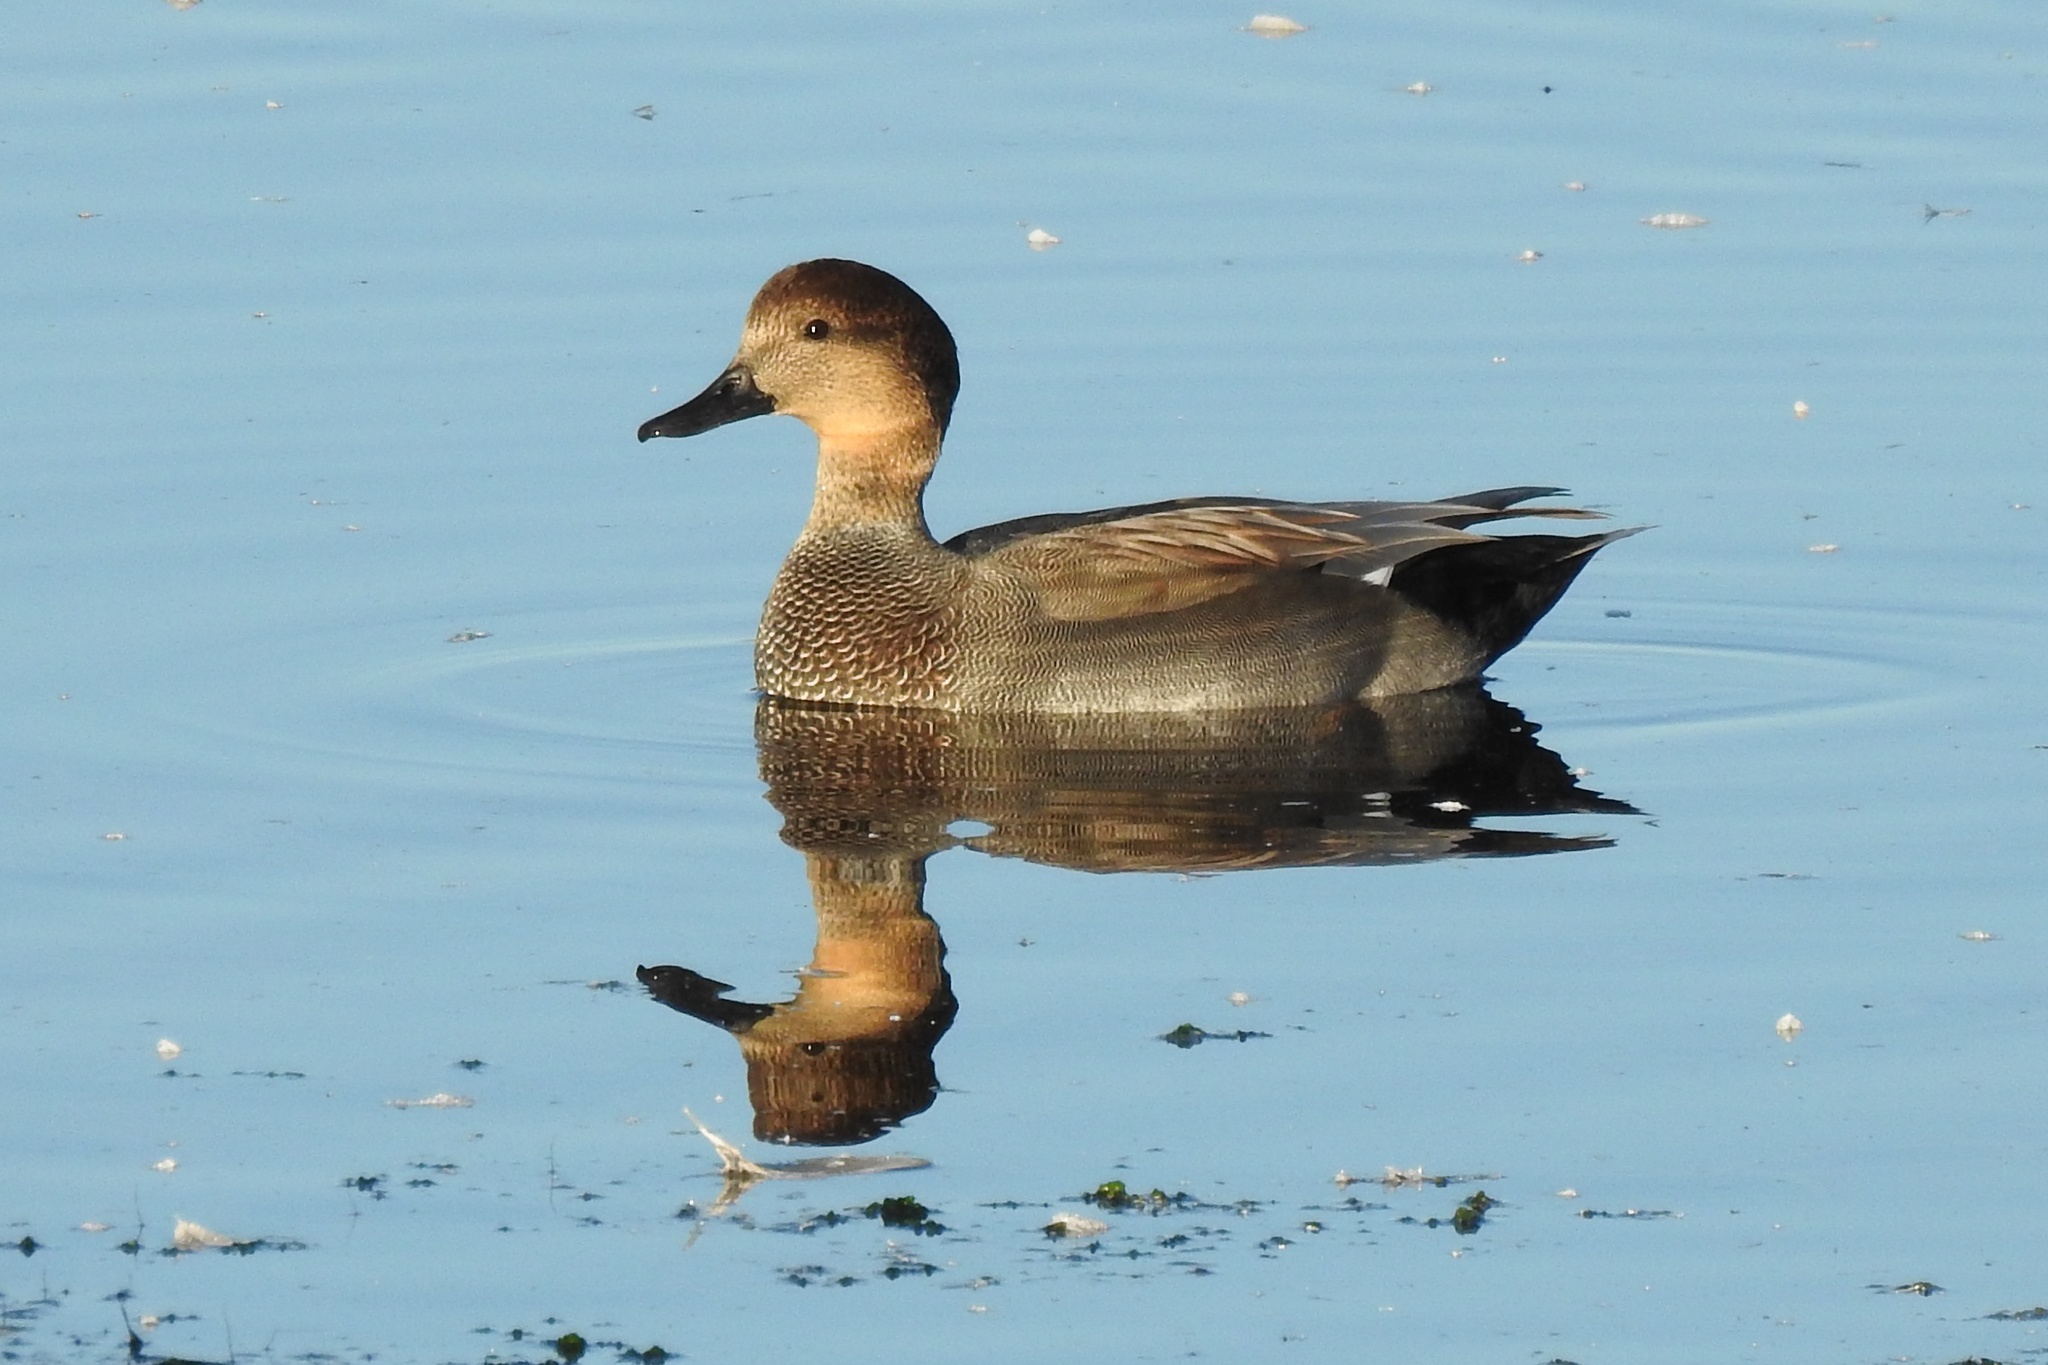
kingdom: Animalia
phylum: Chordata
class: Aves
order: Anseriformes
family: Anatidae
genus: Mareca
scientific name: Mareca strepera
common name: Gadwall
